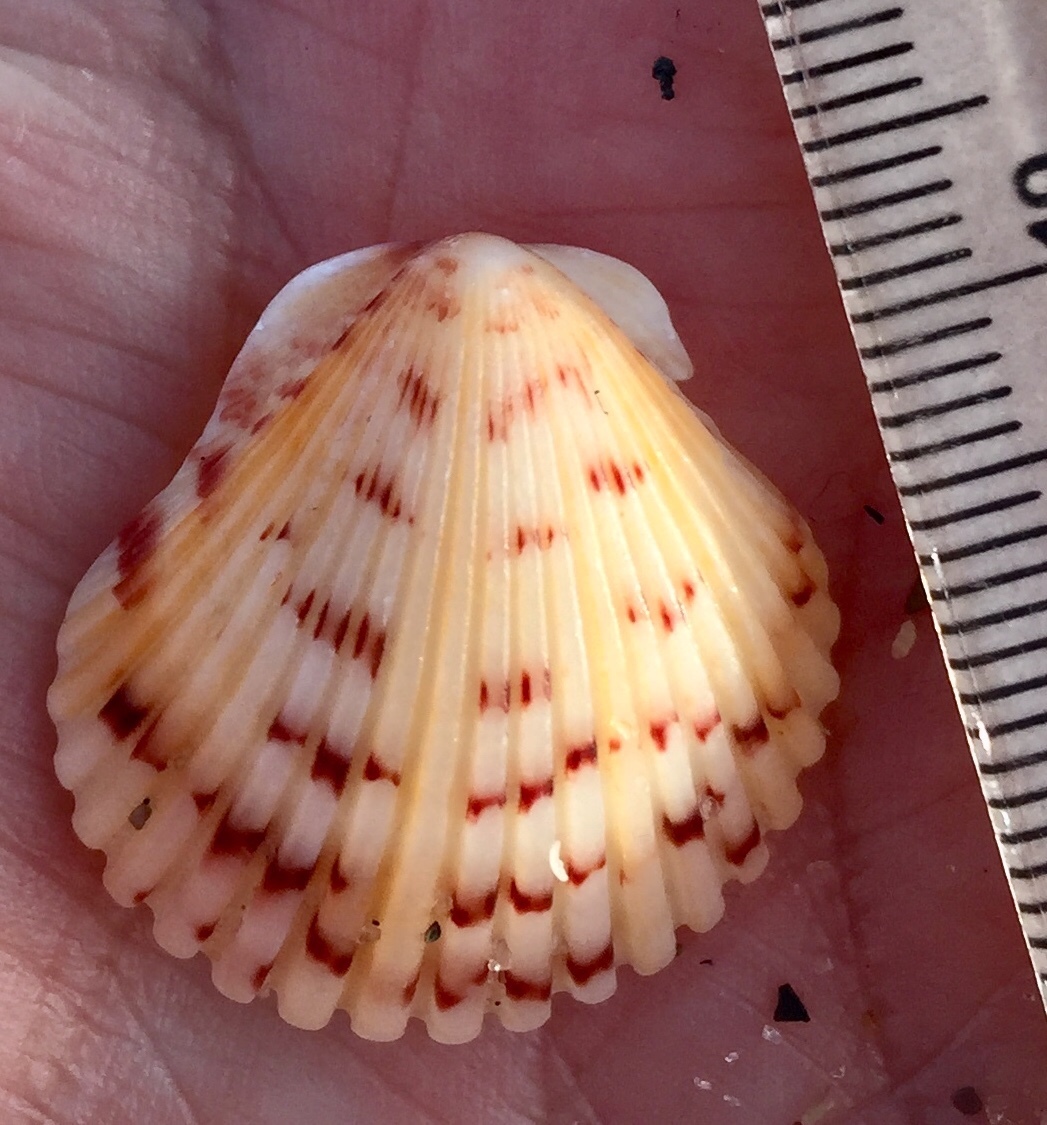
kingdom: Animalia
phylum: Mollusca
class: Bivalvia
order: Pectinida
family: Pectinidae
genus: Argopecten
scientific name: Argopecten gibbus
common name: Atlantic calico scallop
